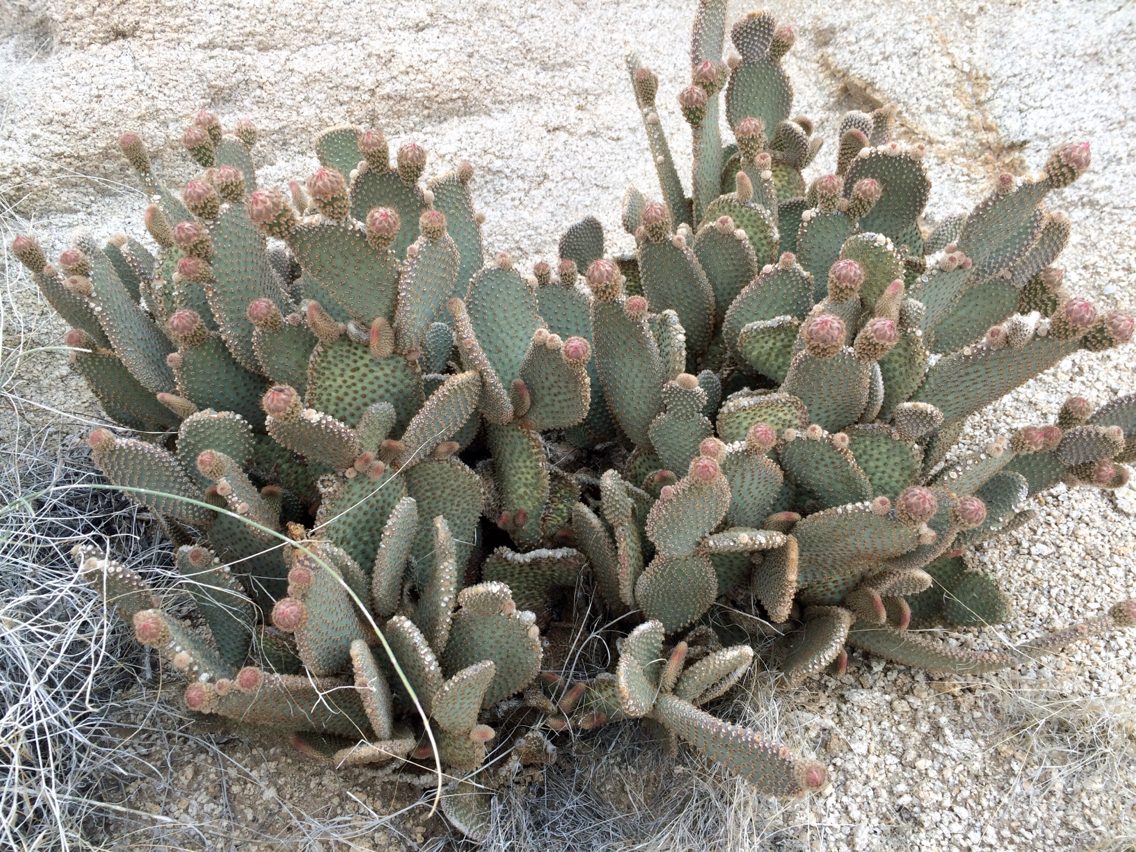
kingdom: Plantae
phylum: Tracheophyta
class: Magnoliopsida
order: Caryophyllales
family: Cactaceae
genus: Opuntia
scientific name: Opuntia basilaris
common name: Beavertail prickly-pear
